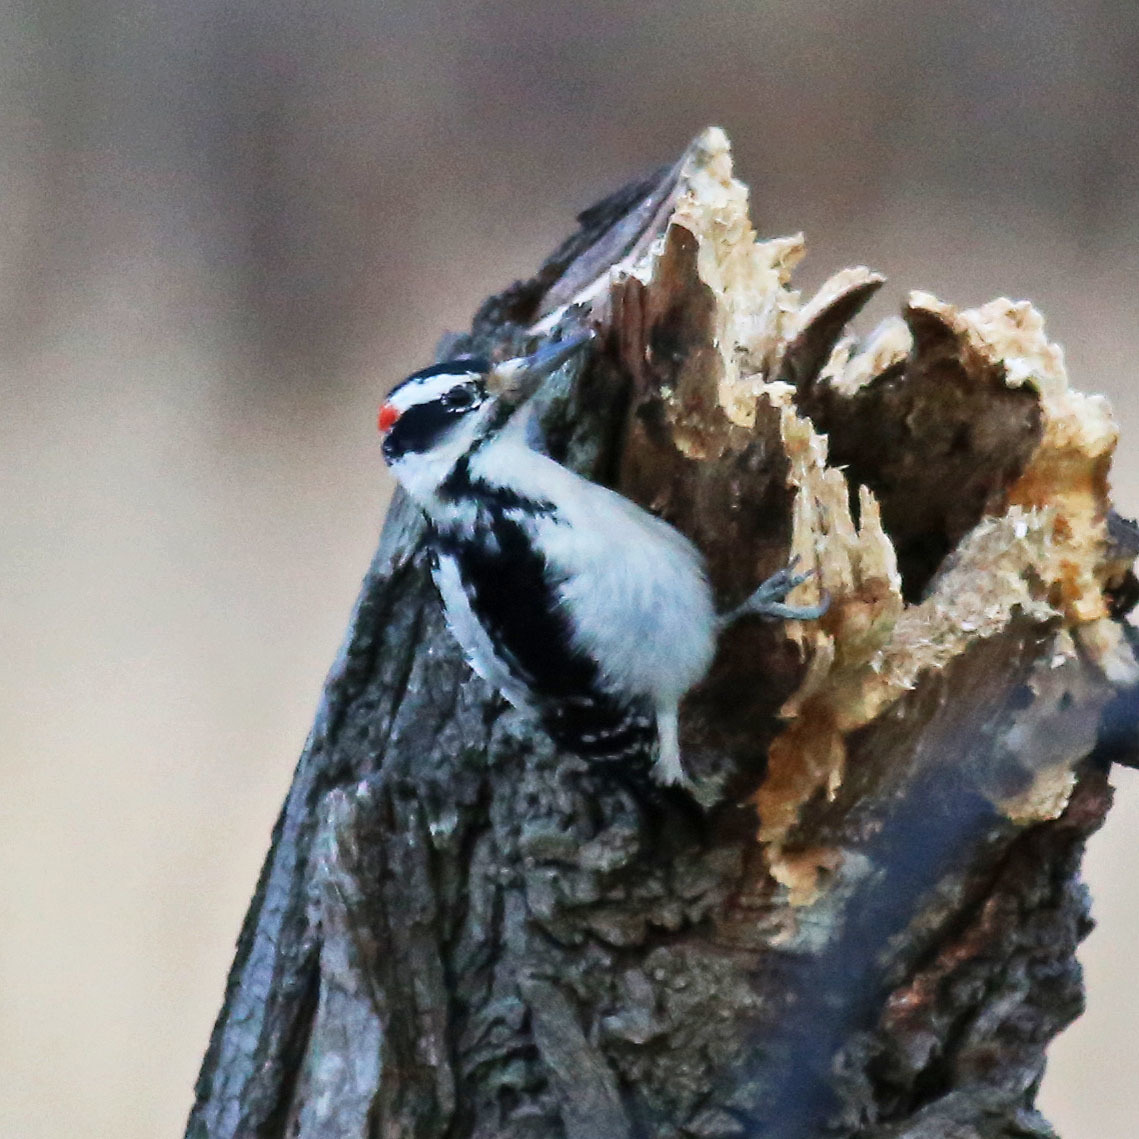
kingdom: Animalia
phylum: Chordata
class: Aves
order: Piciformes
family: Picidae
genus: Leuconotopicus
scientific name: Leuconotopicus villosus
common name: Hairy woodpecker
